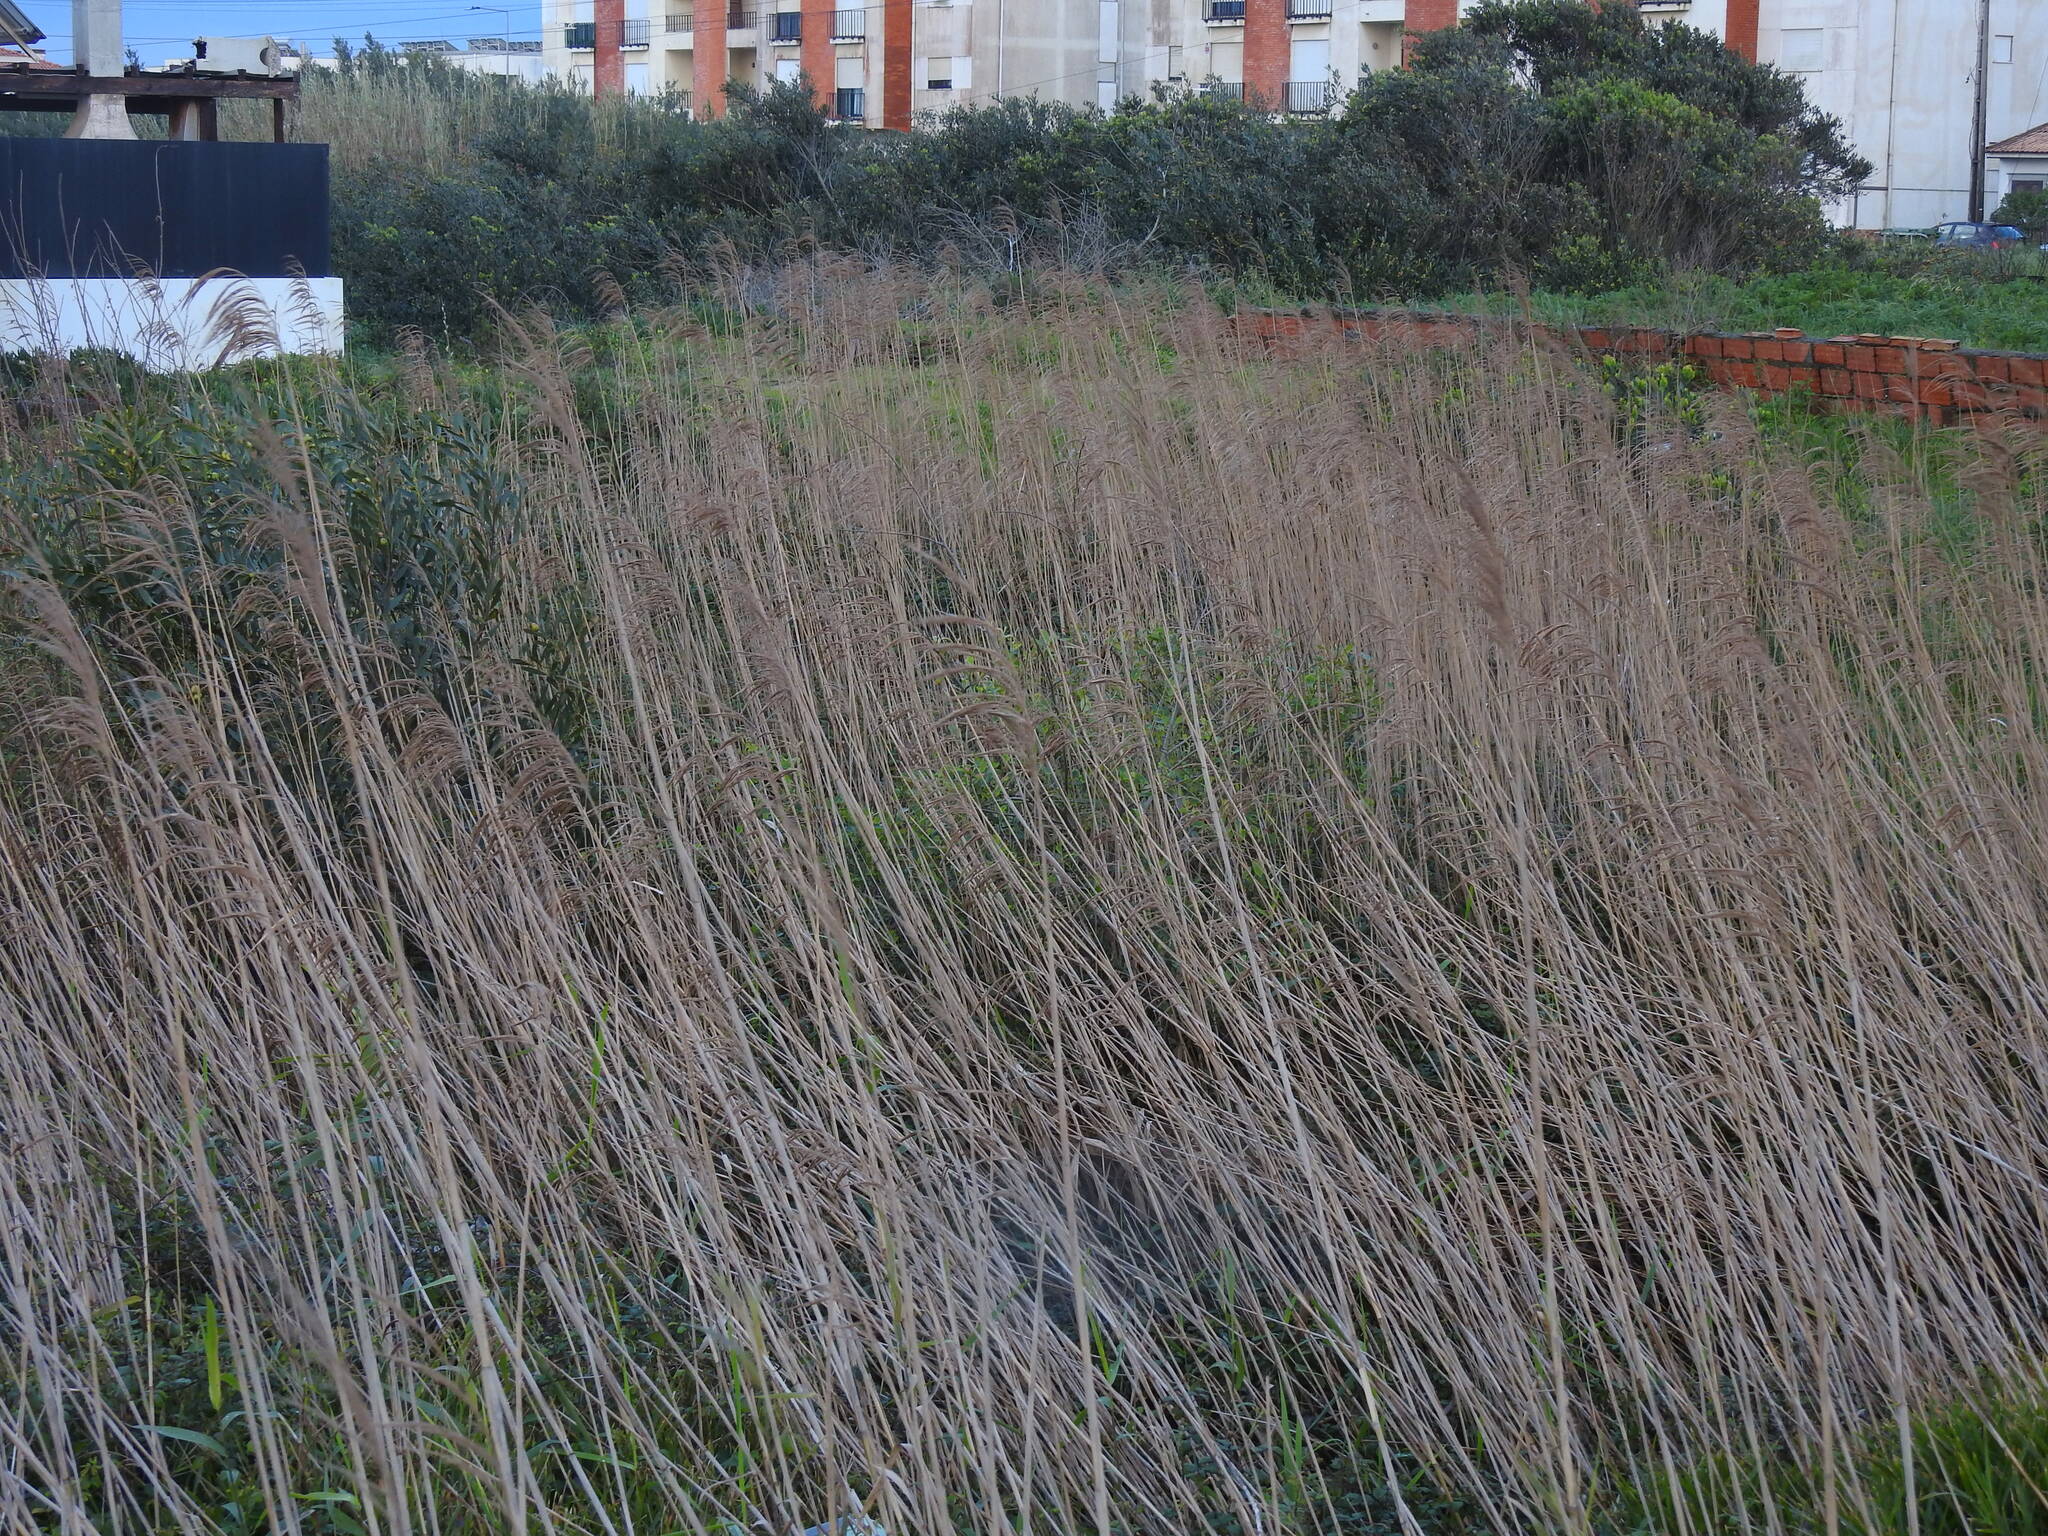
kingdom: Plantae
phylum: Tracheophyta
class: Liliopsida
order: Poales
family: Poaceae
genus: Phragmites
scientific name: Phragmites australis
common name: Common reed
